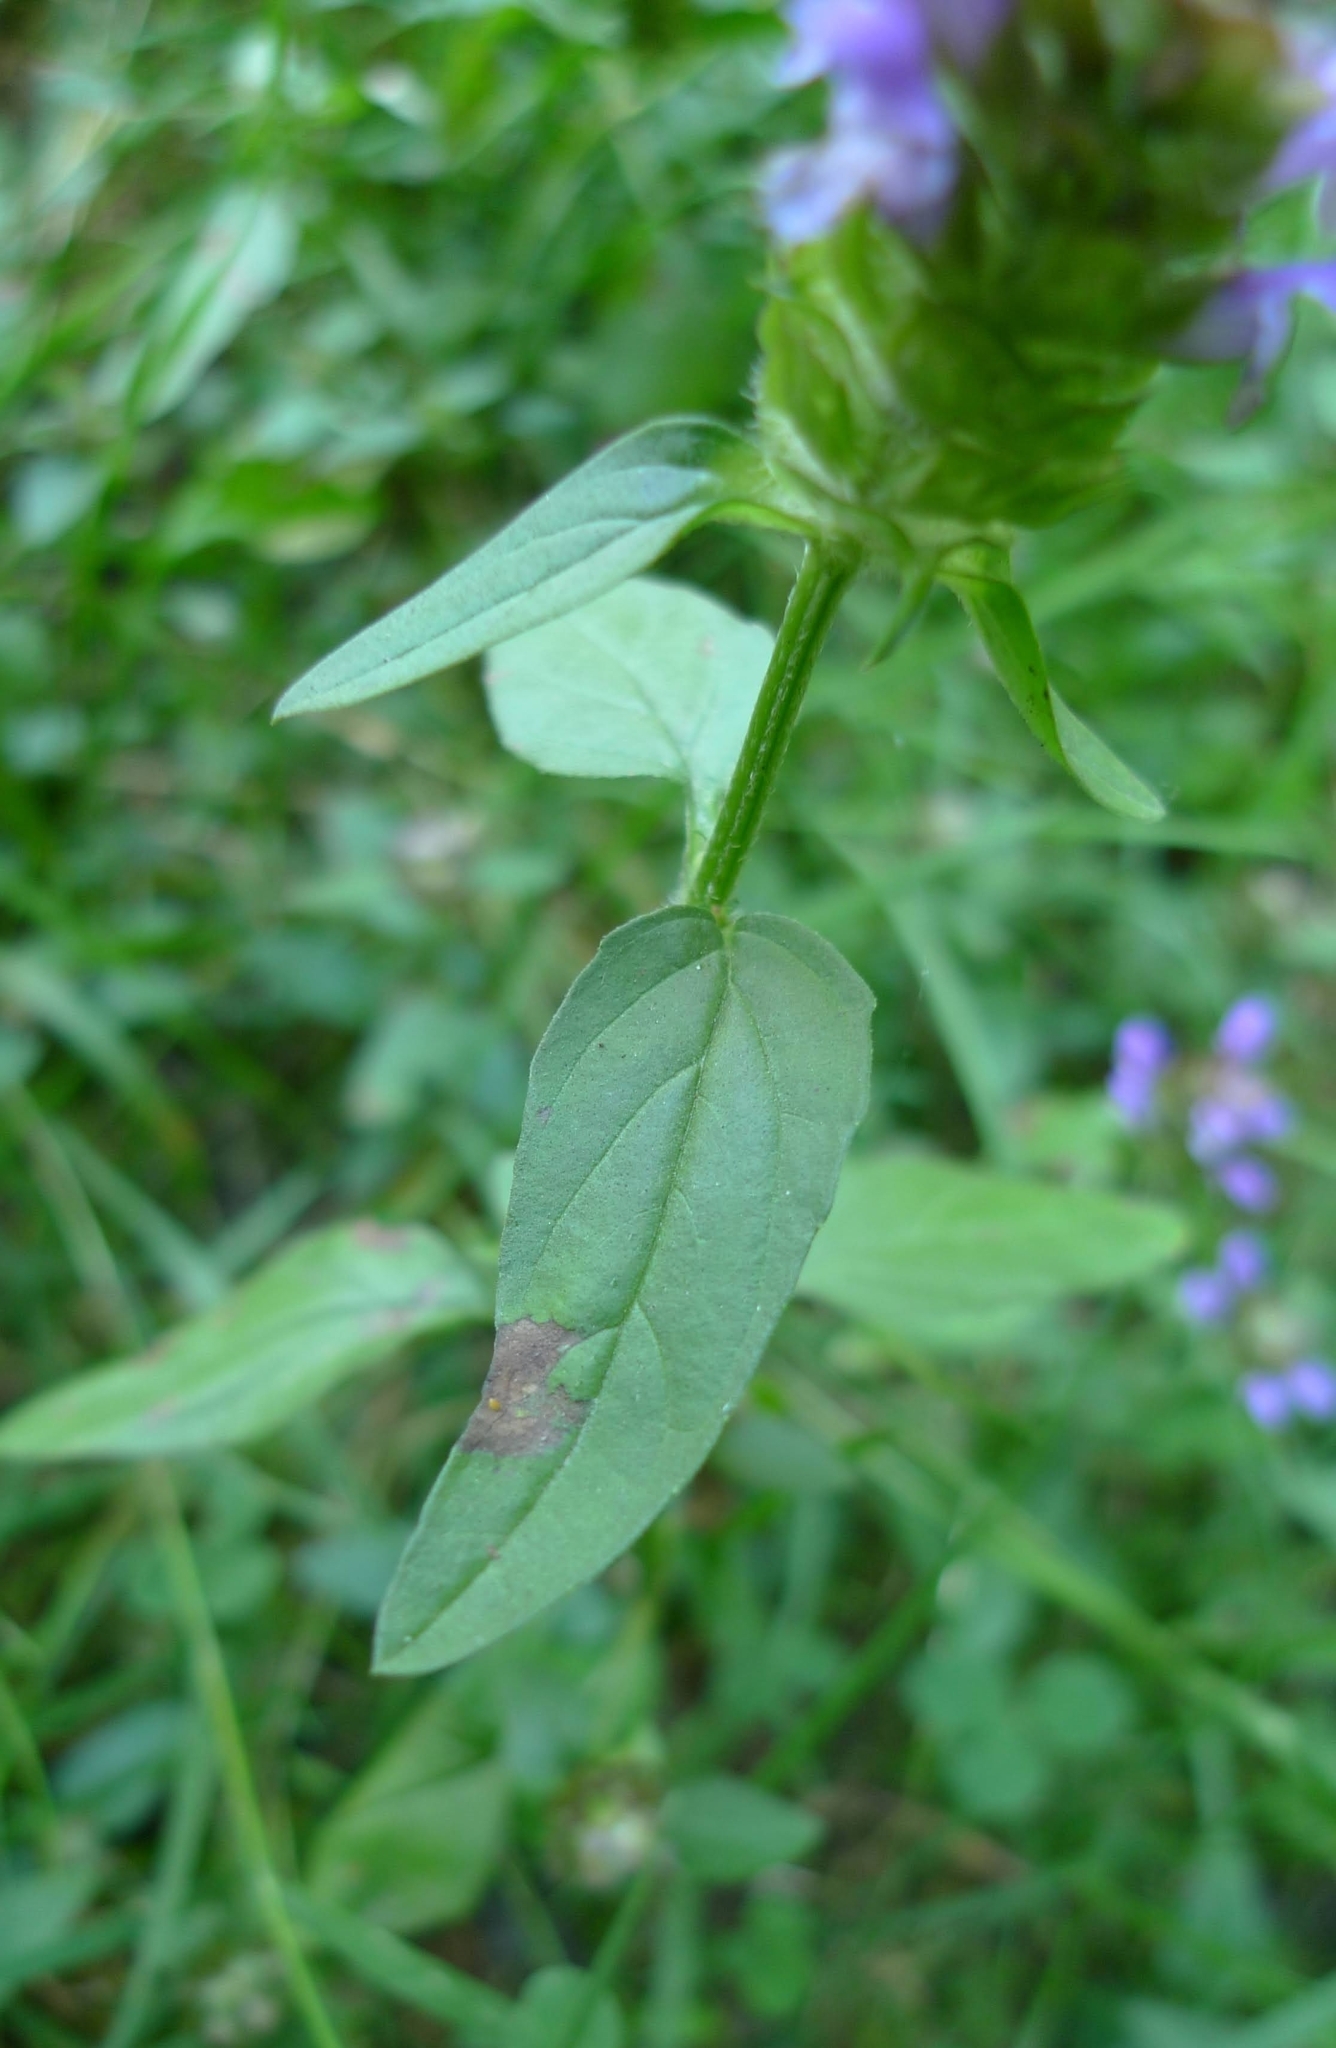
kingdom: Plantae
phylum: Tracheophyta
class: Magnoliopsida
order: Lamiales
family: Lamiaceae
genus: Prunella
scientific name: Prunella vulgaris
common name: Heal-all
